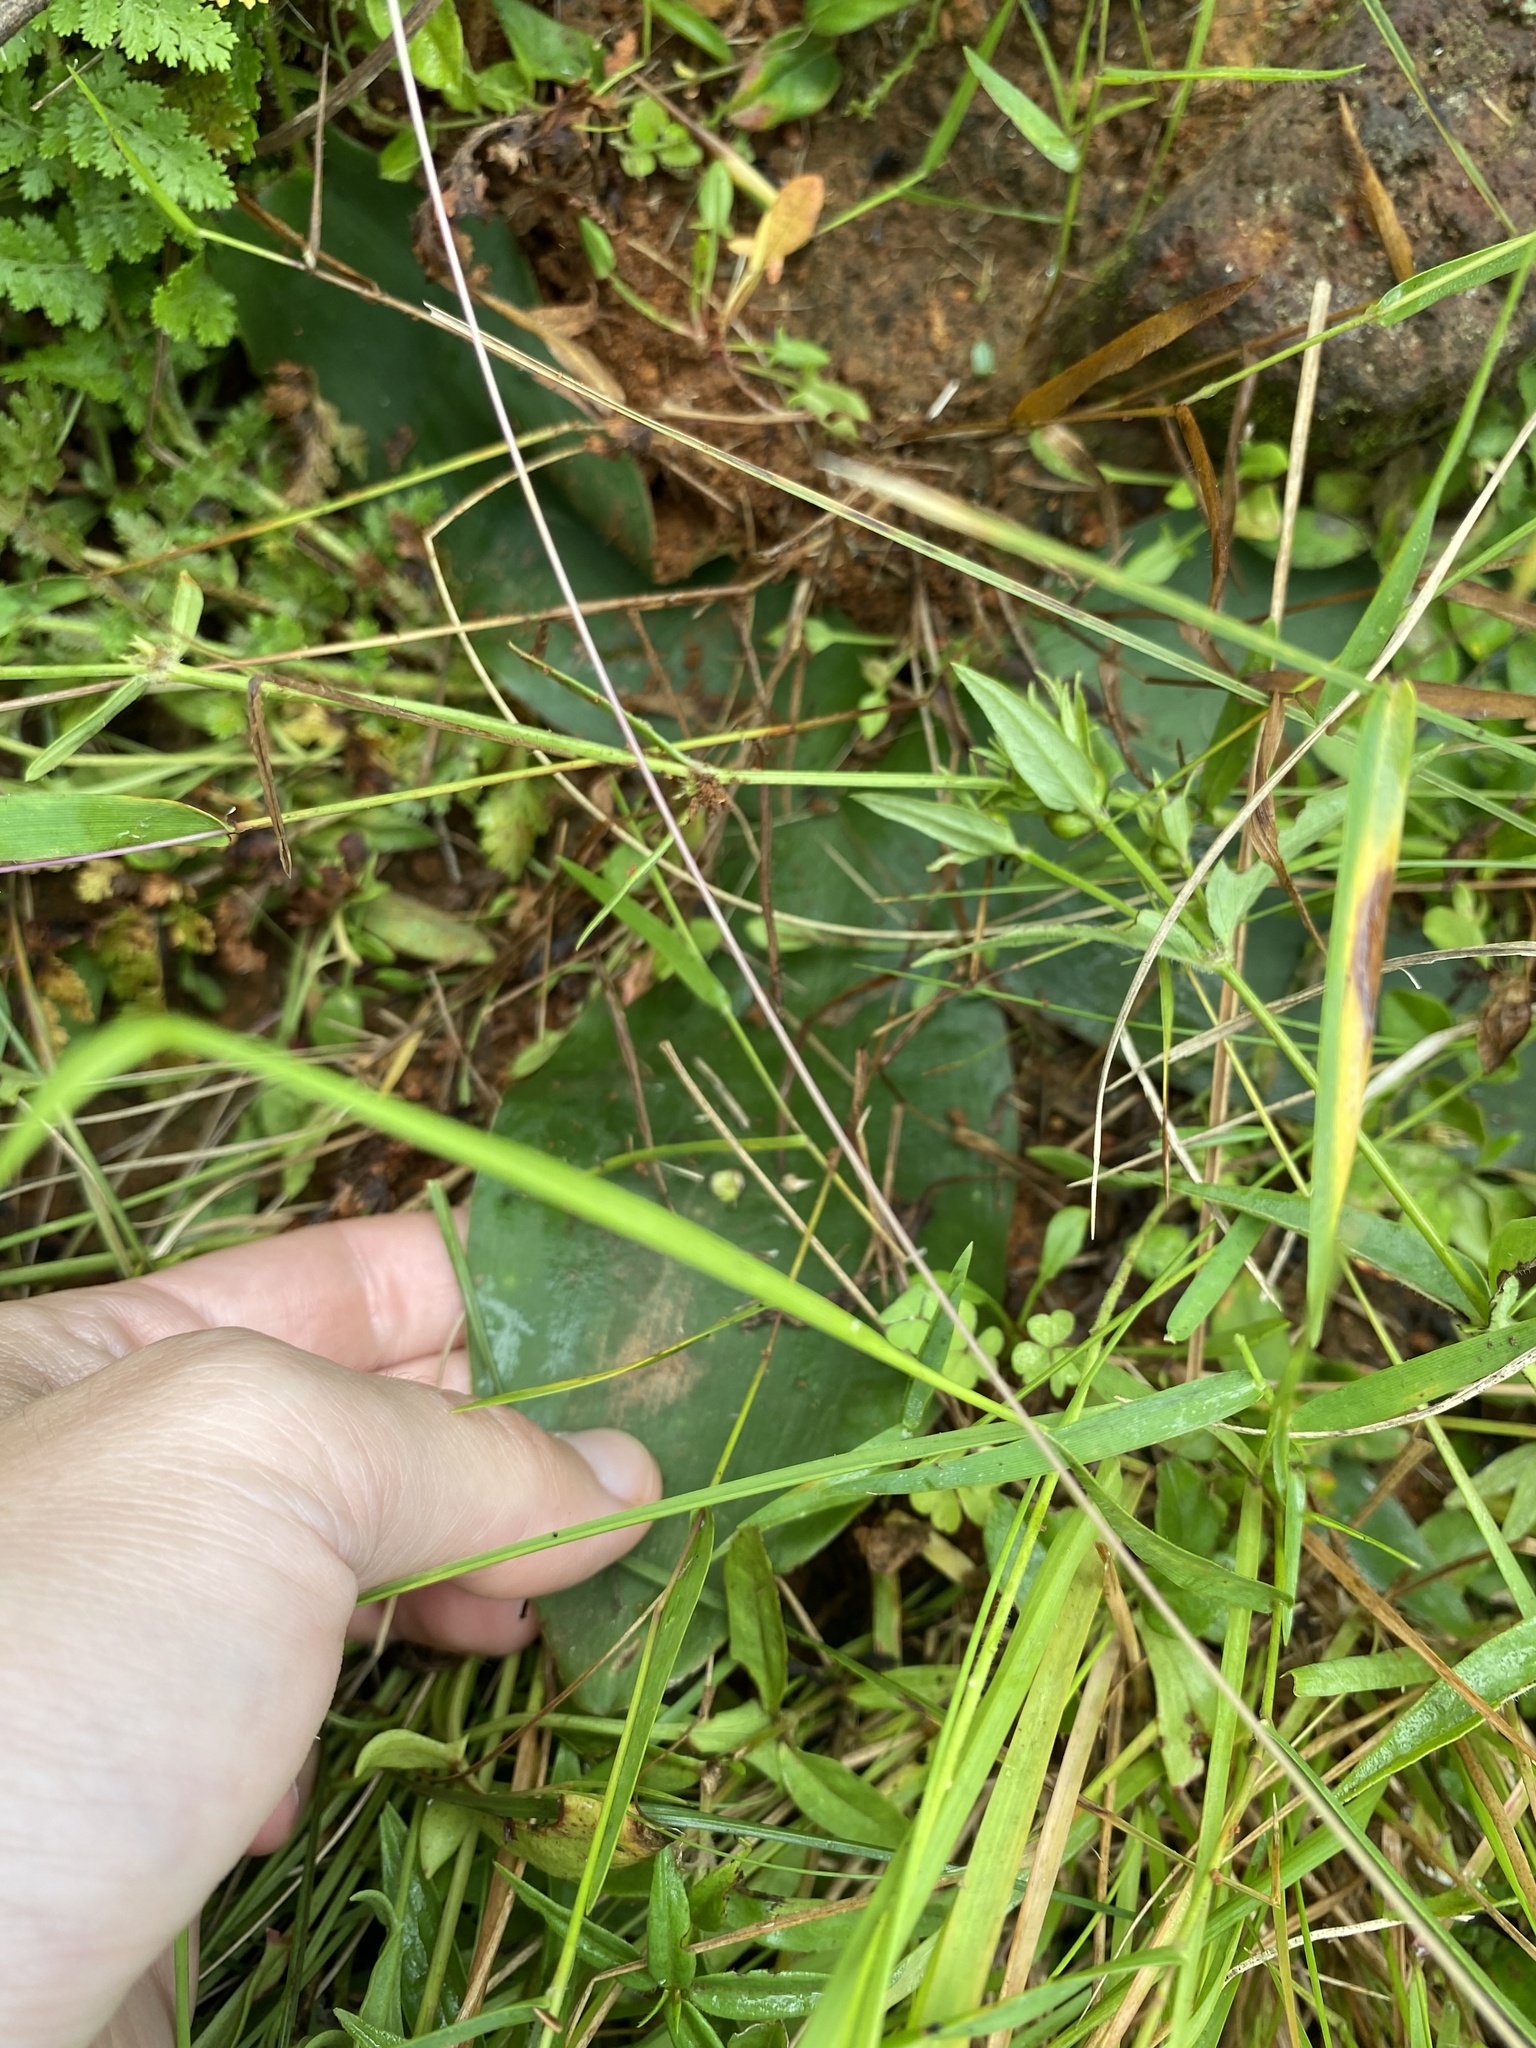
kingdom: Plantae
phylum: Tracheophyta
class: Liliopsida
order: Asparagales
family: Asparagaceae
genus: Ledebouria
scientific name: Ledebouria ovatifolia
